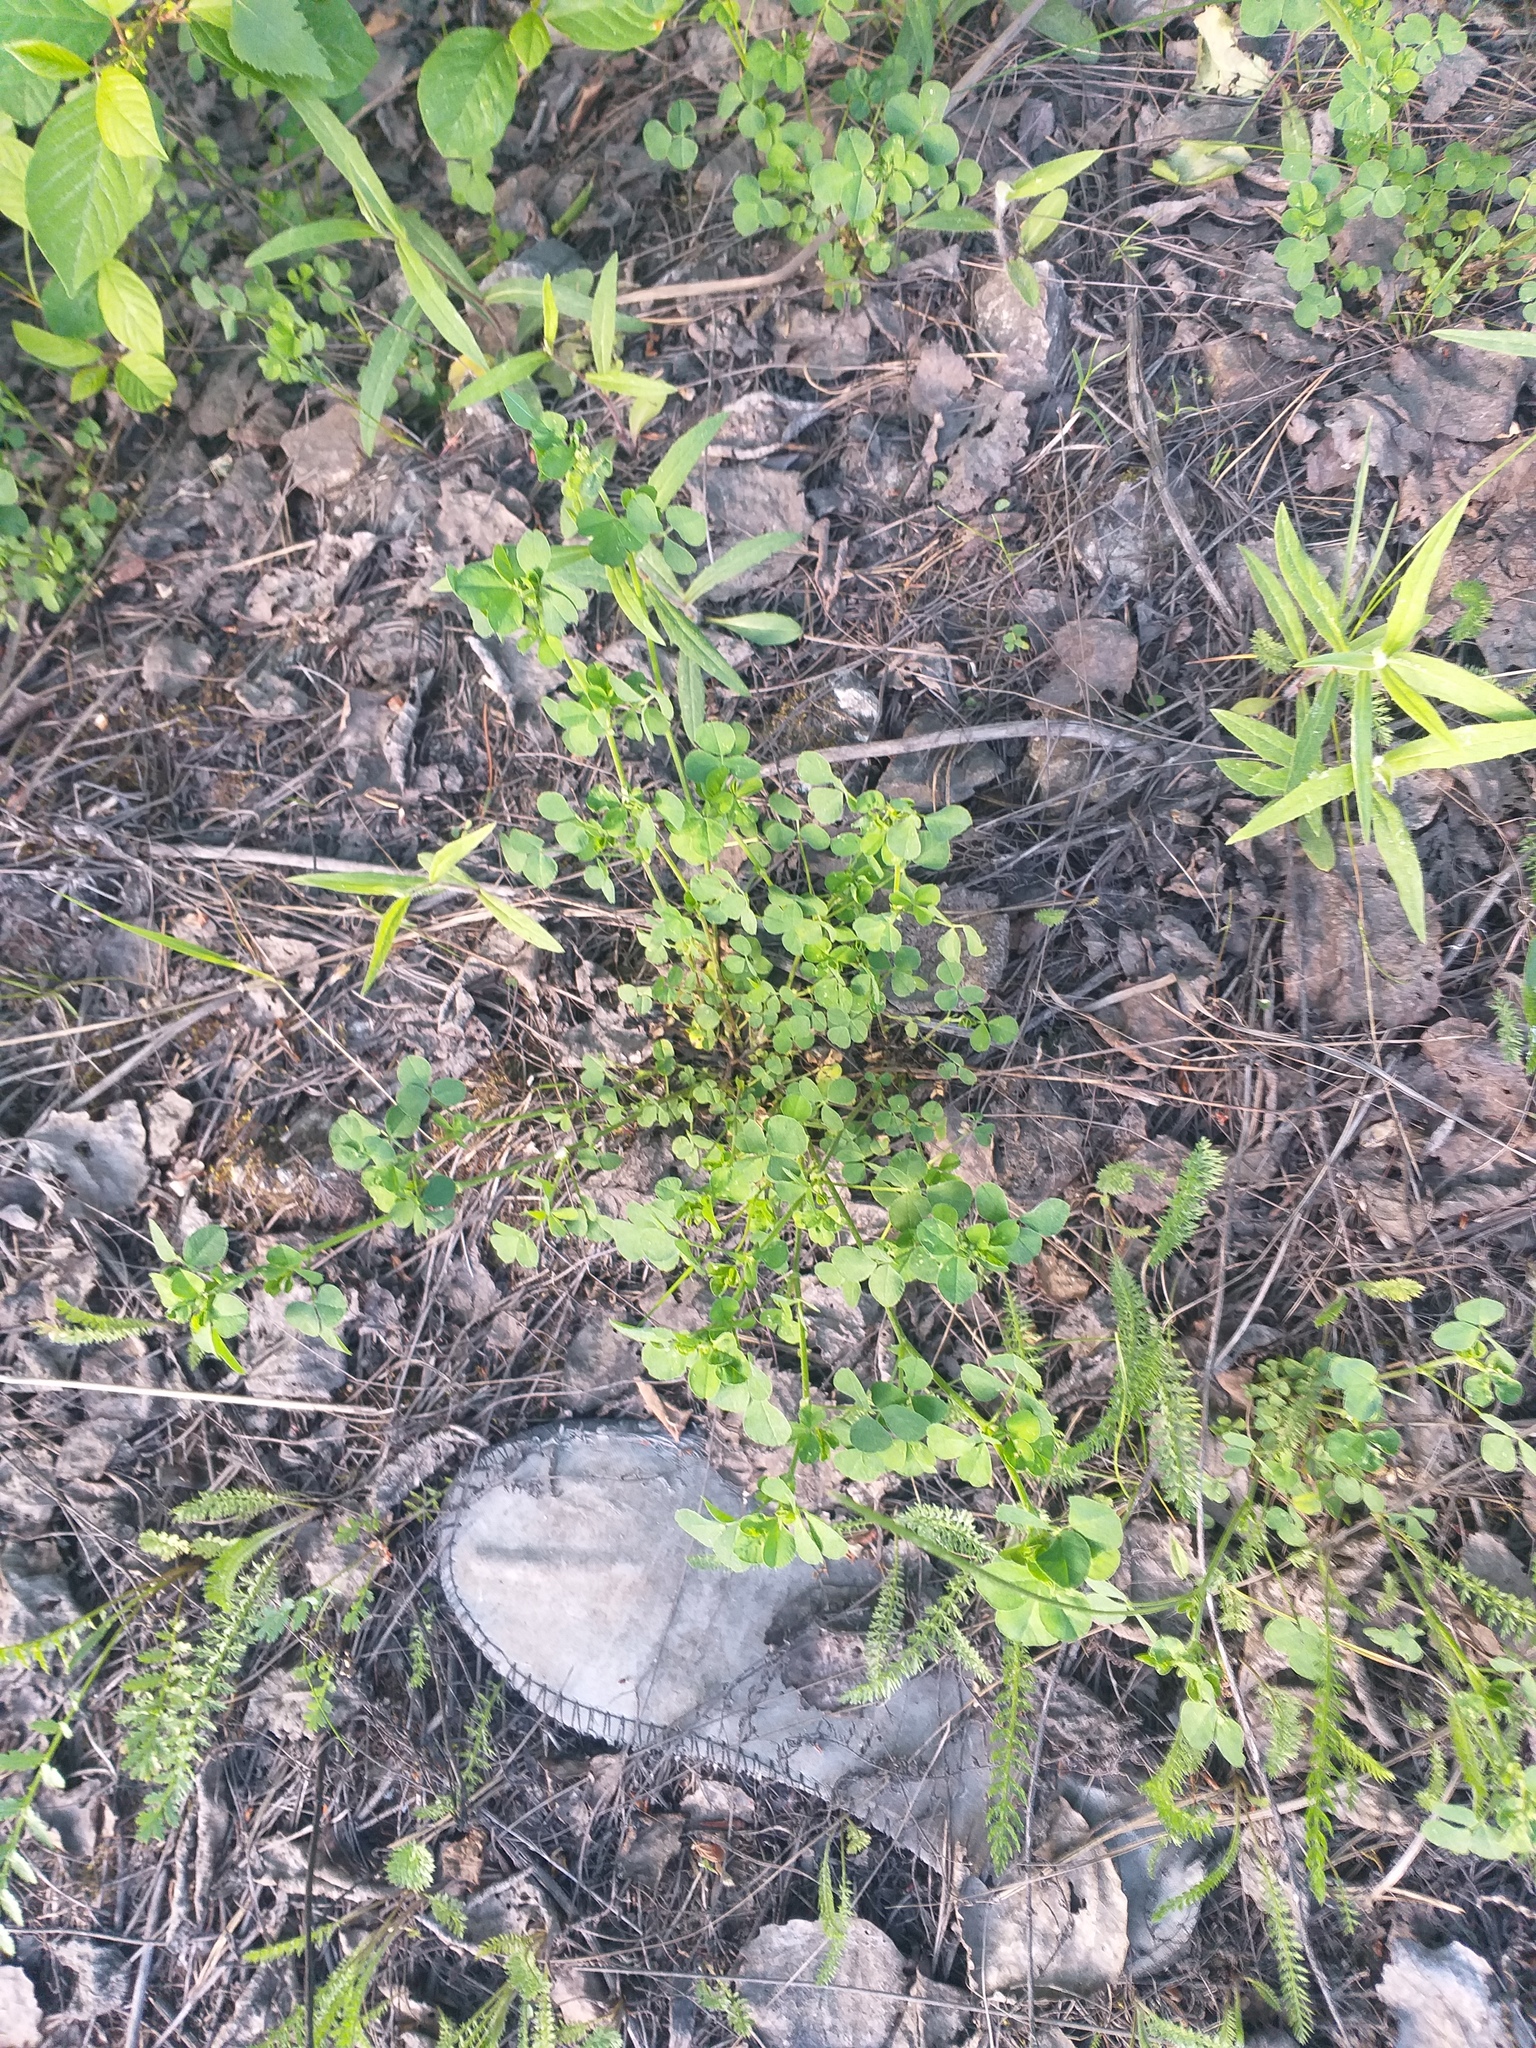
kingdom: Plantae
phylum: Tracheophyta
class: Magnoliopsida
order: Fabales
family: Fabaceae
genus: Medicago
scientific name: Medicago lupulina
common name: Black medick
